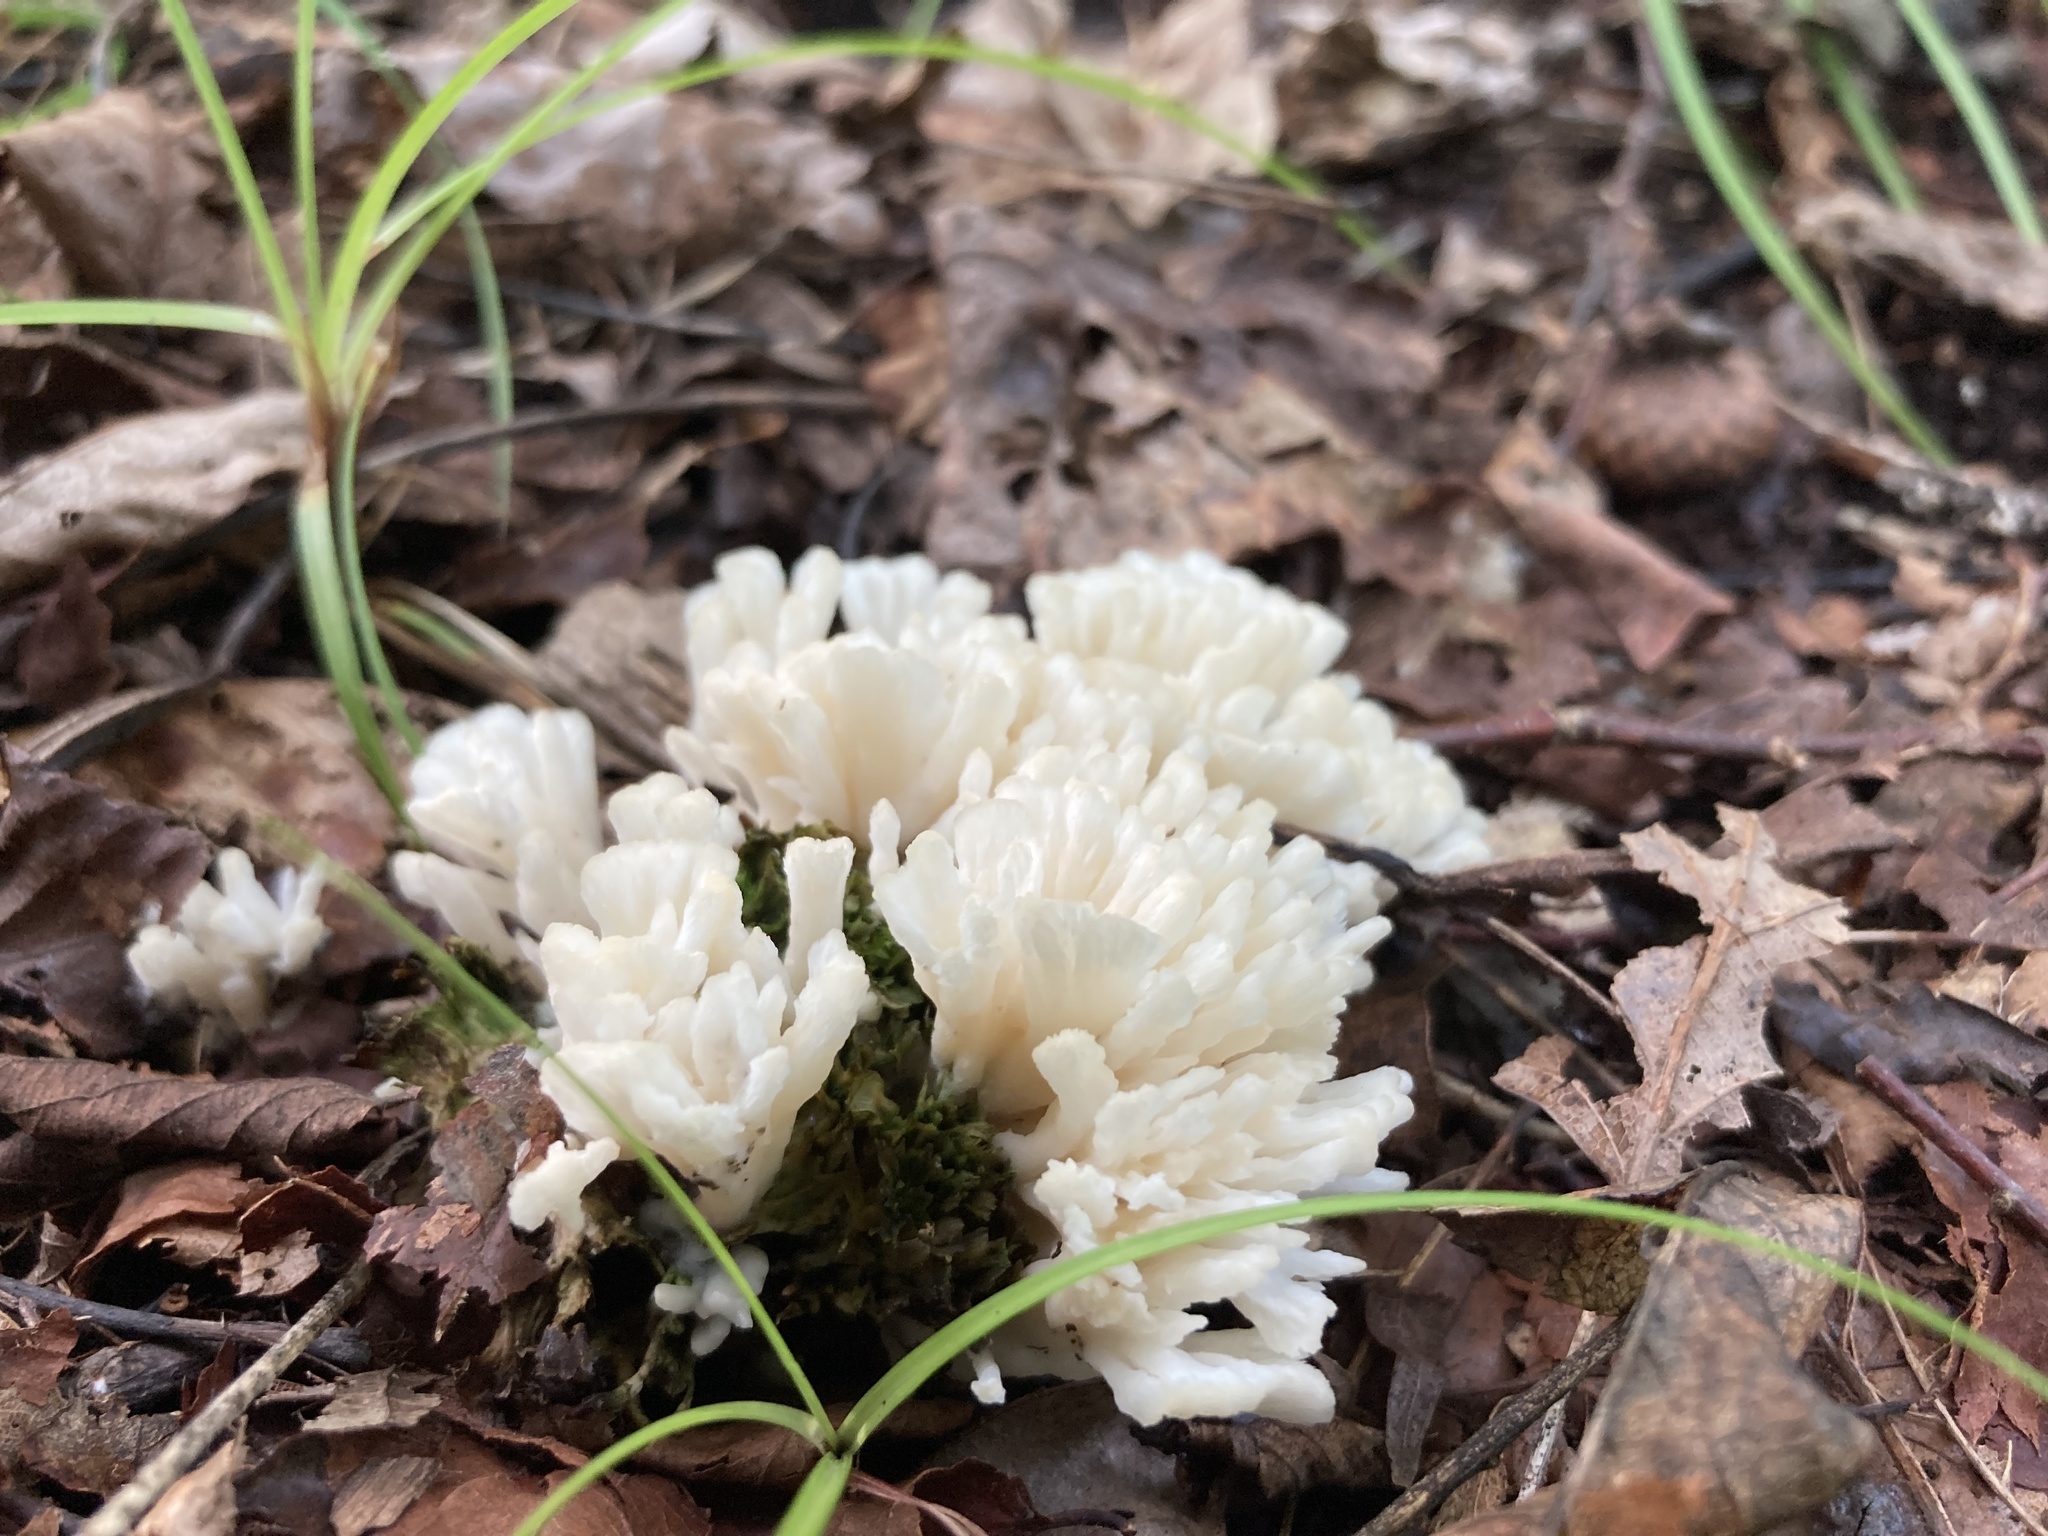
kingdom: Fungi
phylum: Basidiomycota
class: Agaricomycetes
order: Sebacinales
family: Sebacinaceae
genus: Sebacina
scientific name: Sebacina schweinitzii
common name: Jellied false coral fungus
